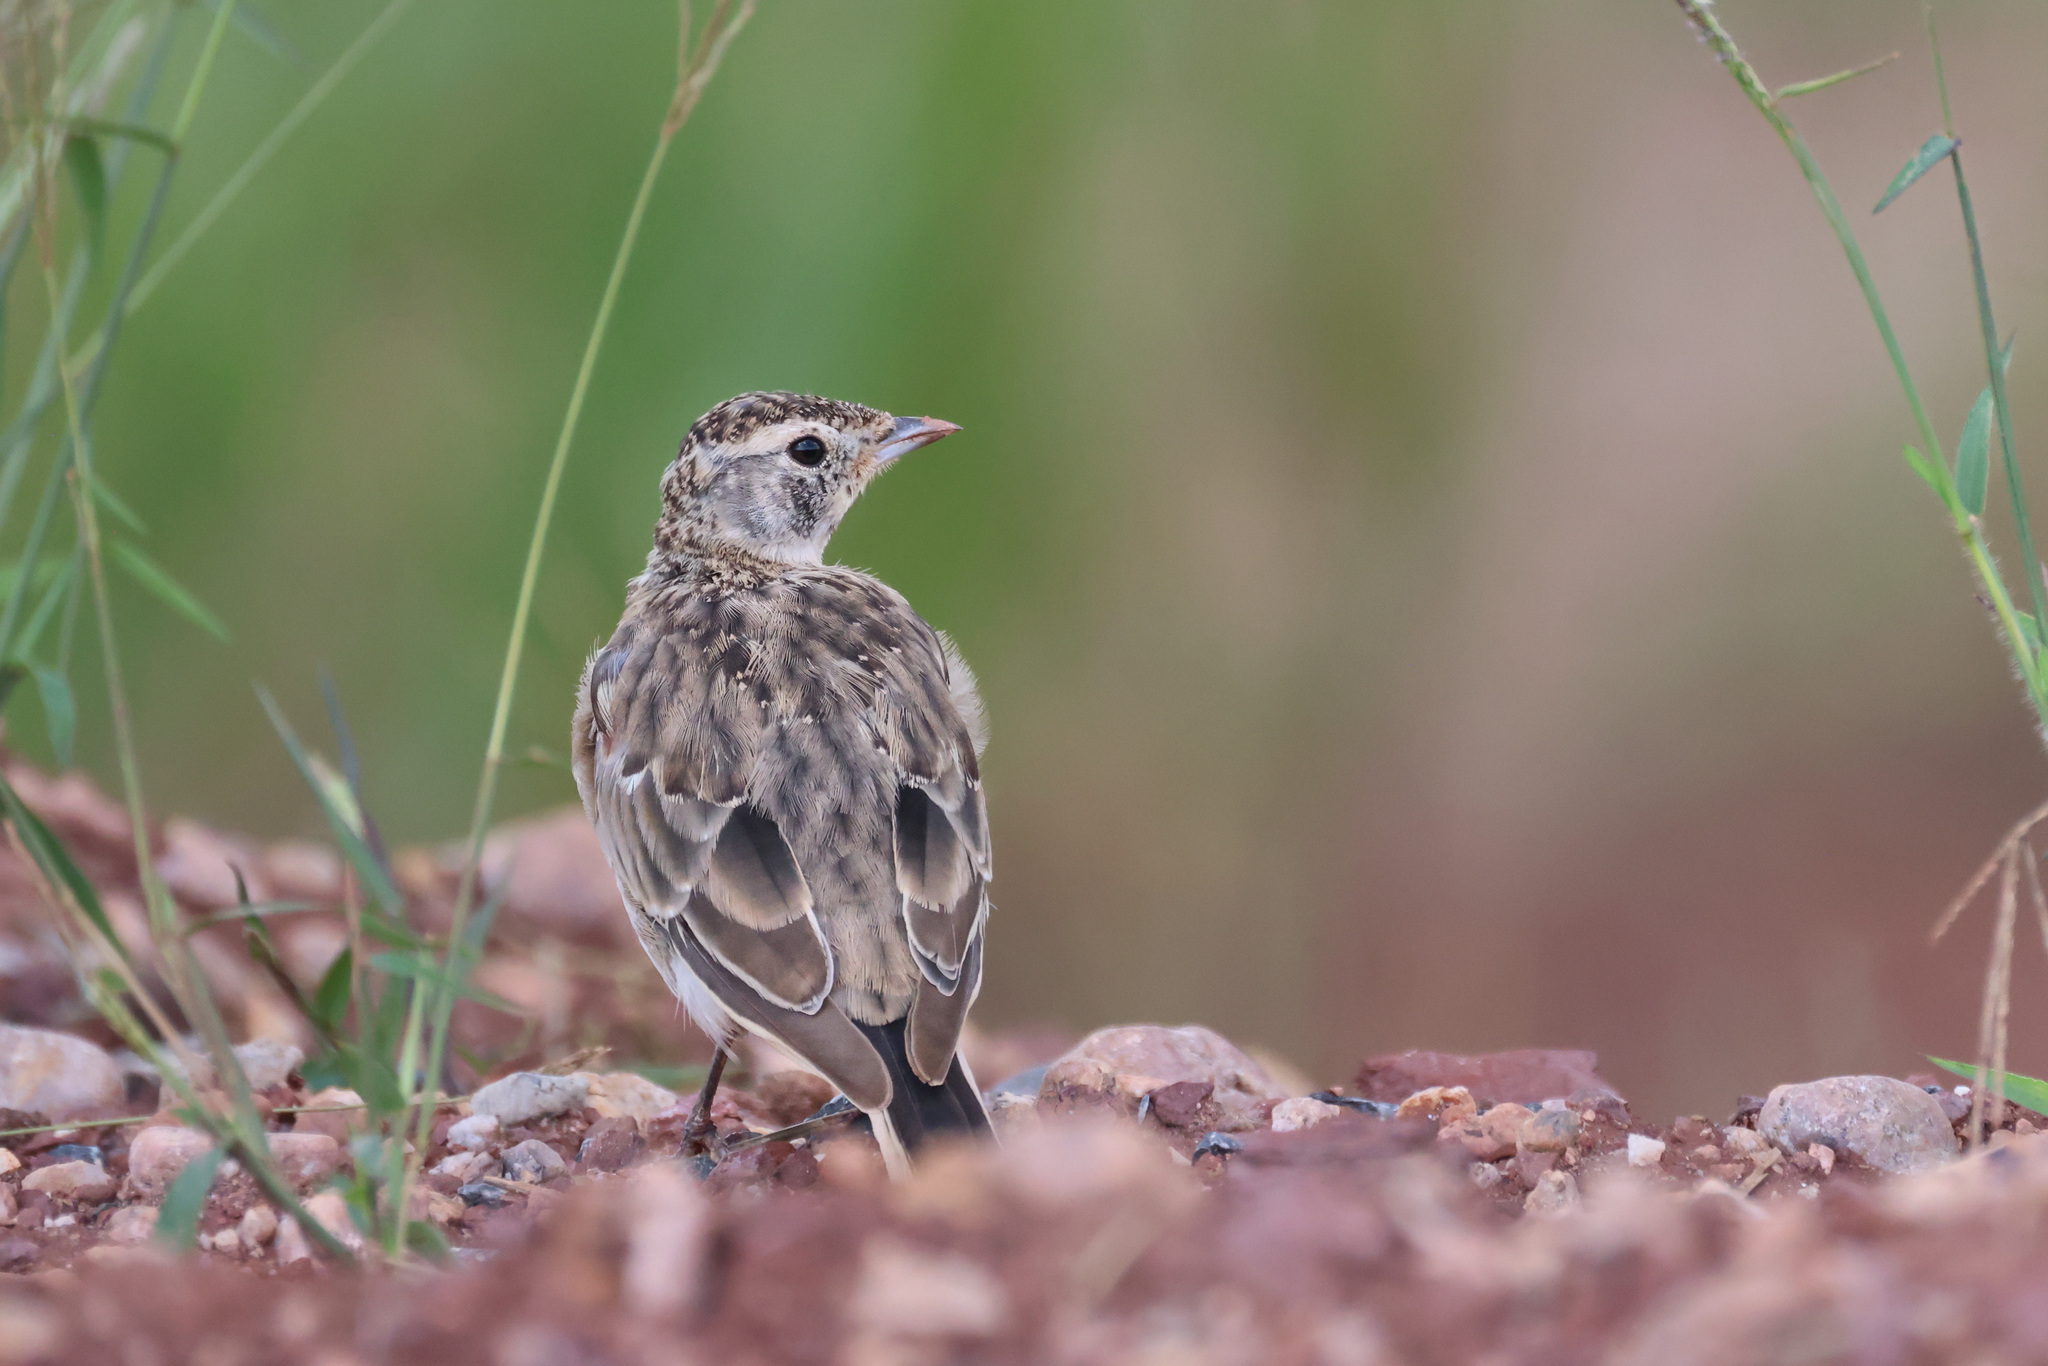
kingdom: Animalia
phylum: Chordata
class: Aves
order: Passeriformes
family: Alaudidae
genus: Eremophila
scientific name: Eremophila alpestris
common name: Horned lark
